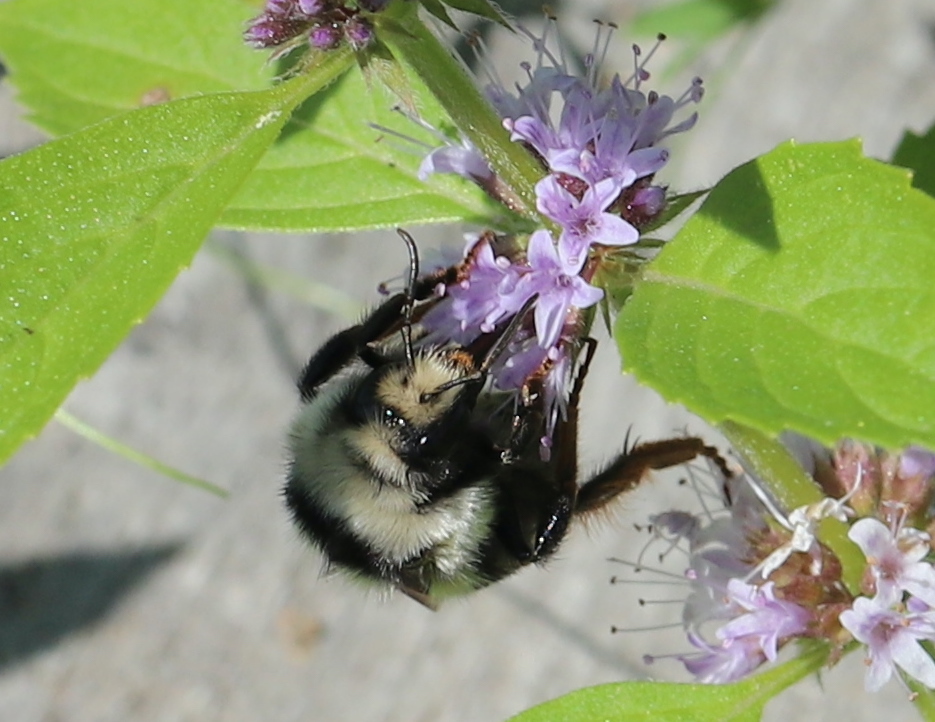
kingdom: Animalia
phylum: Arthropoda
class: Insecta
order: Hymenoptera
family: Apidae
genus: Bombus
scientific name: Bombus vancouverensis
